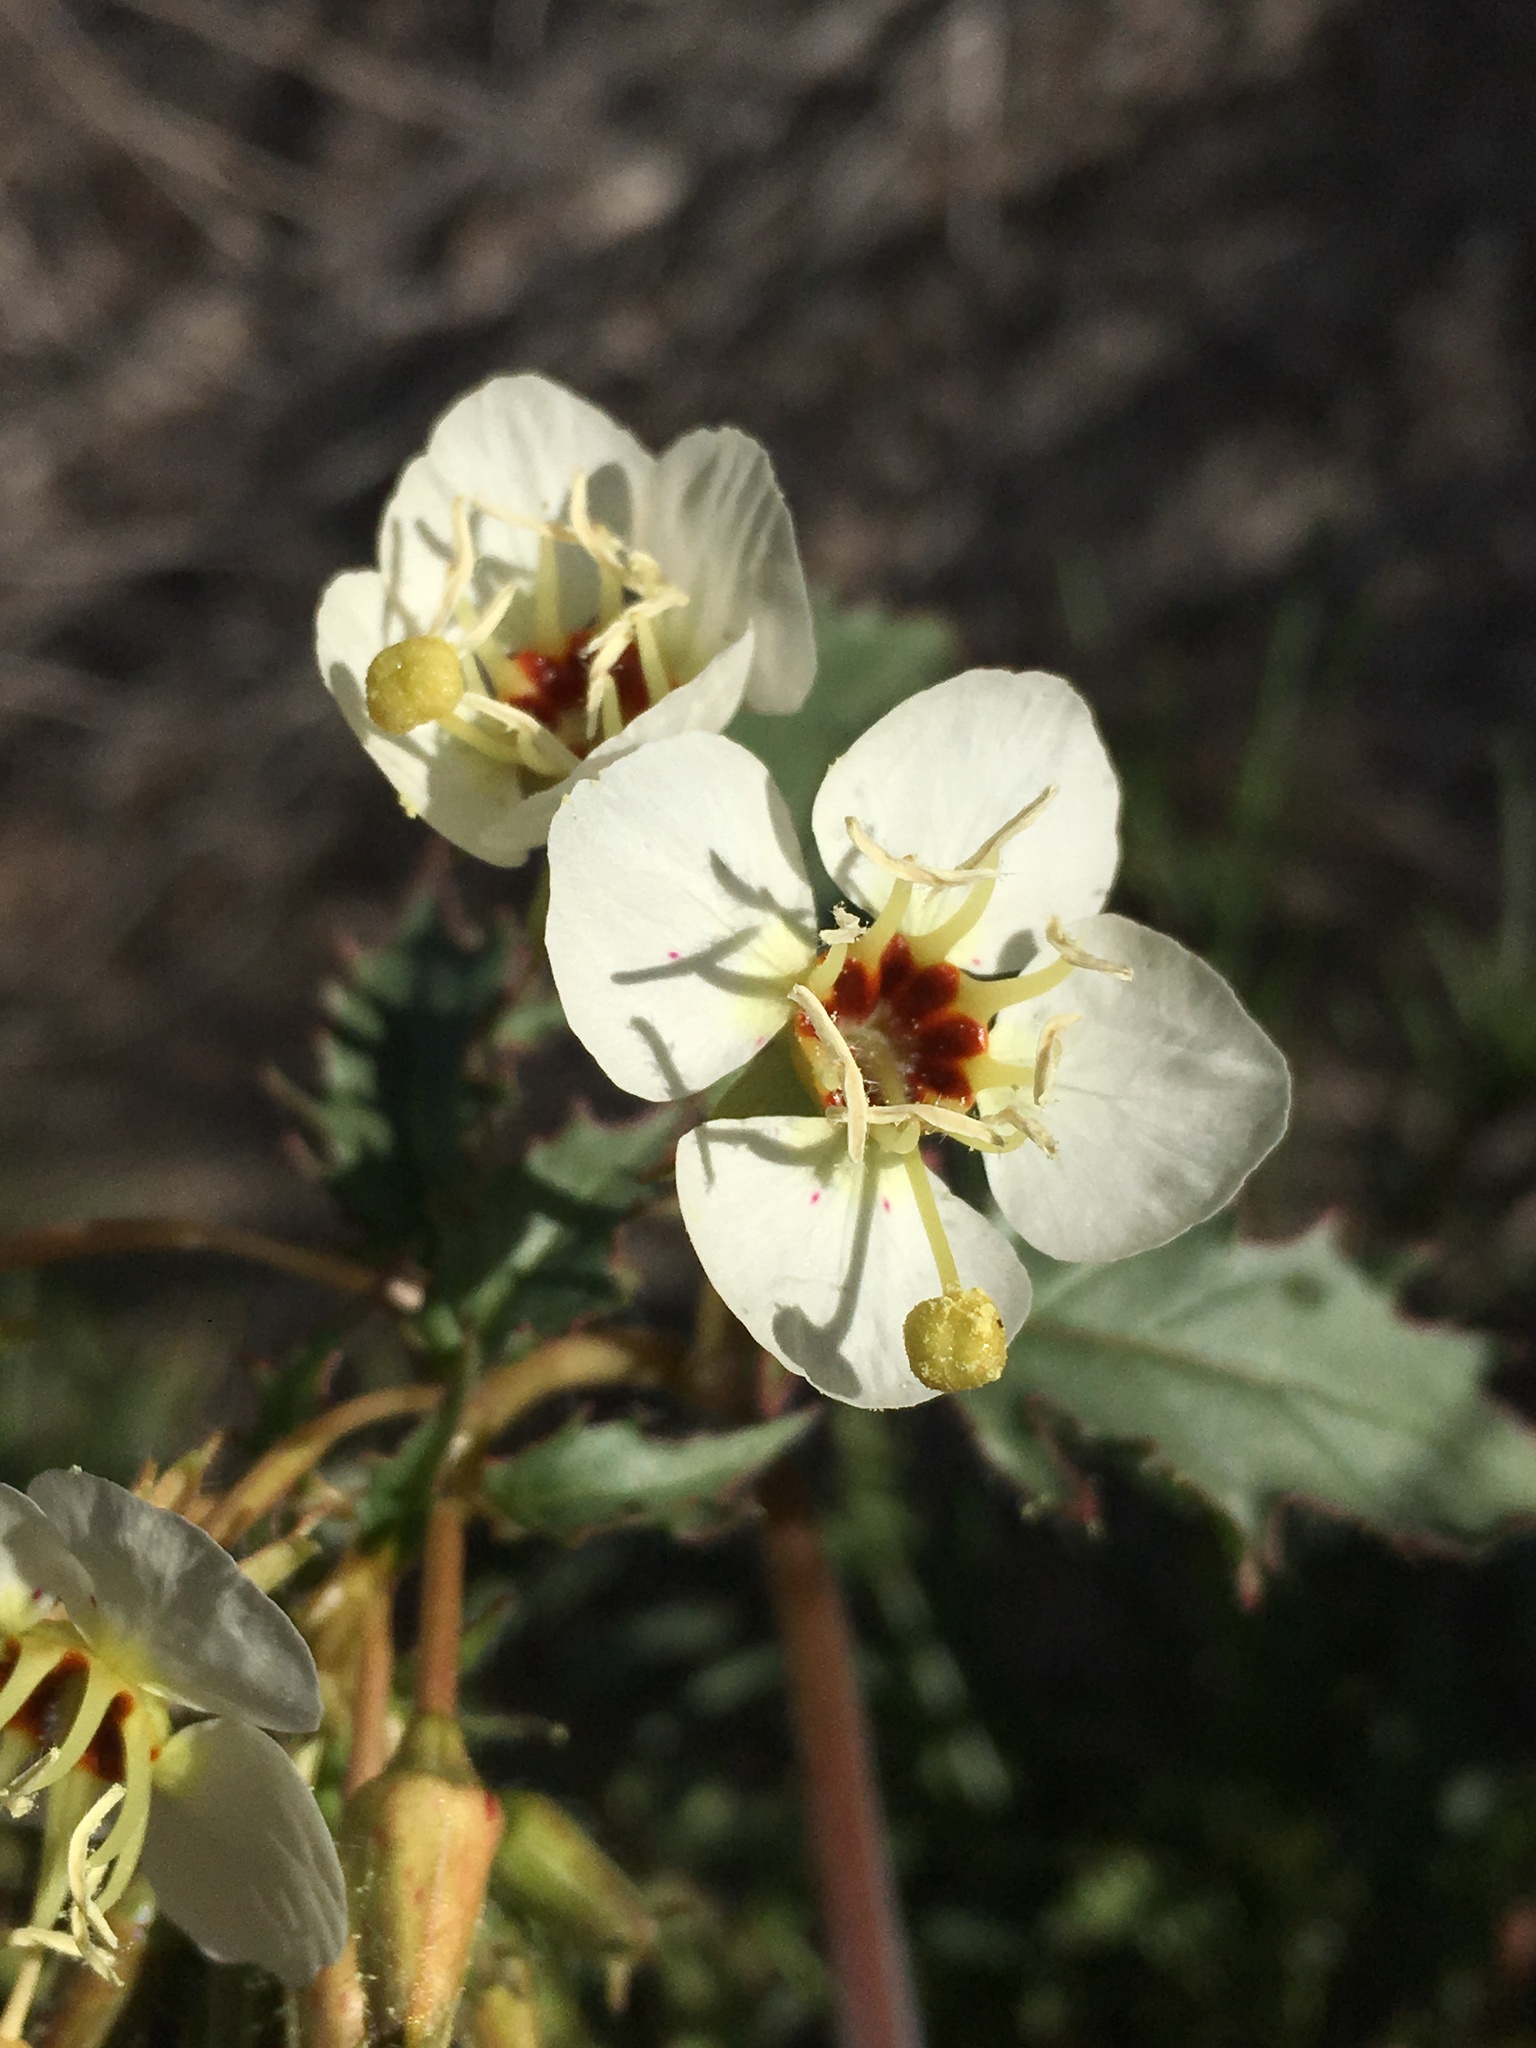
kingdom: Plantae
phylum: Tracheophyta
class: Magnoliopsida
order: Myrtales
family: Onagraceae
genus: Chylismia
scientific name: Chylismia claviformis
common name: Browneyes
